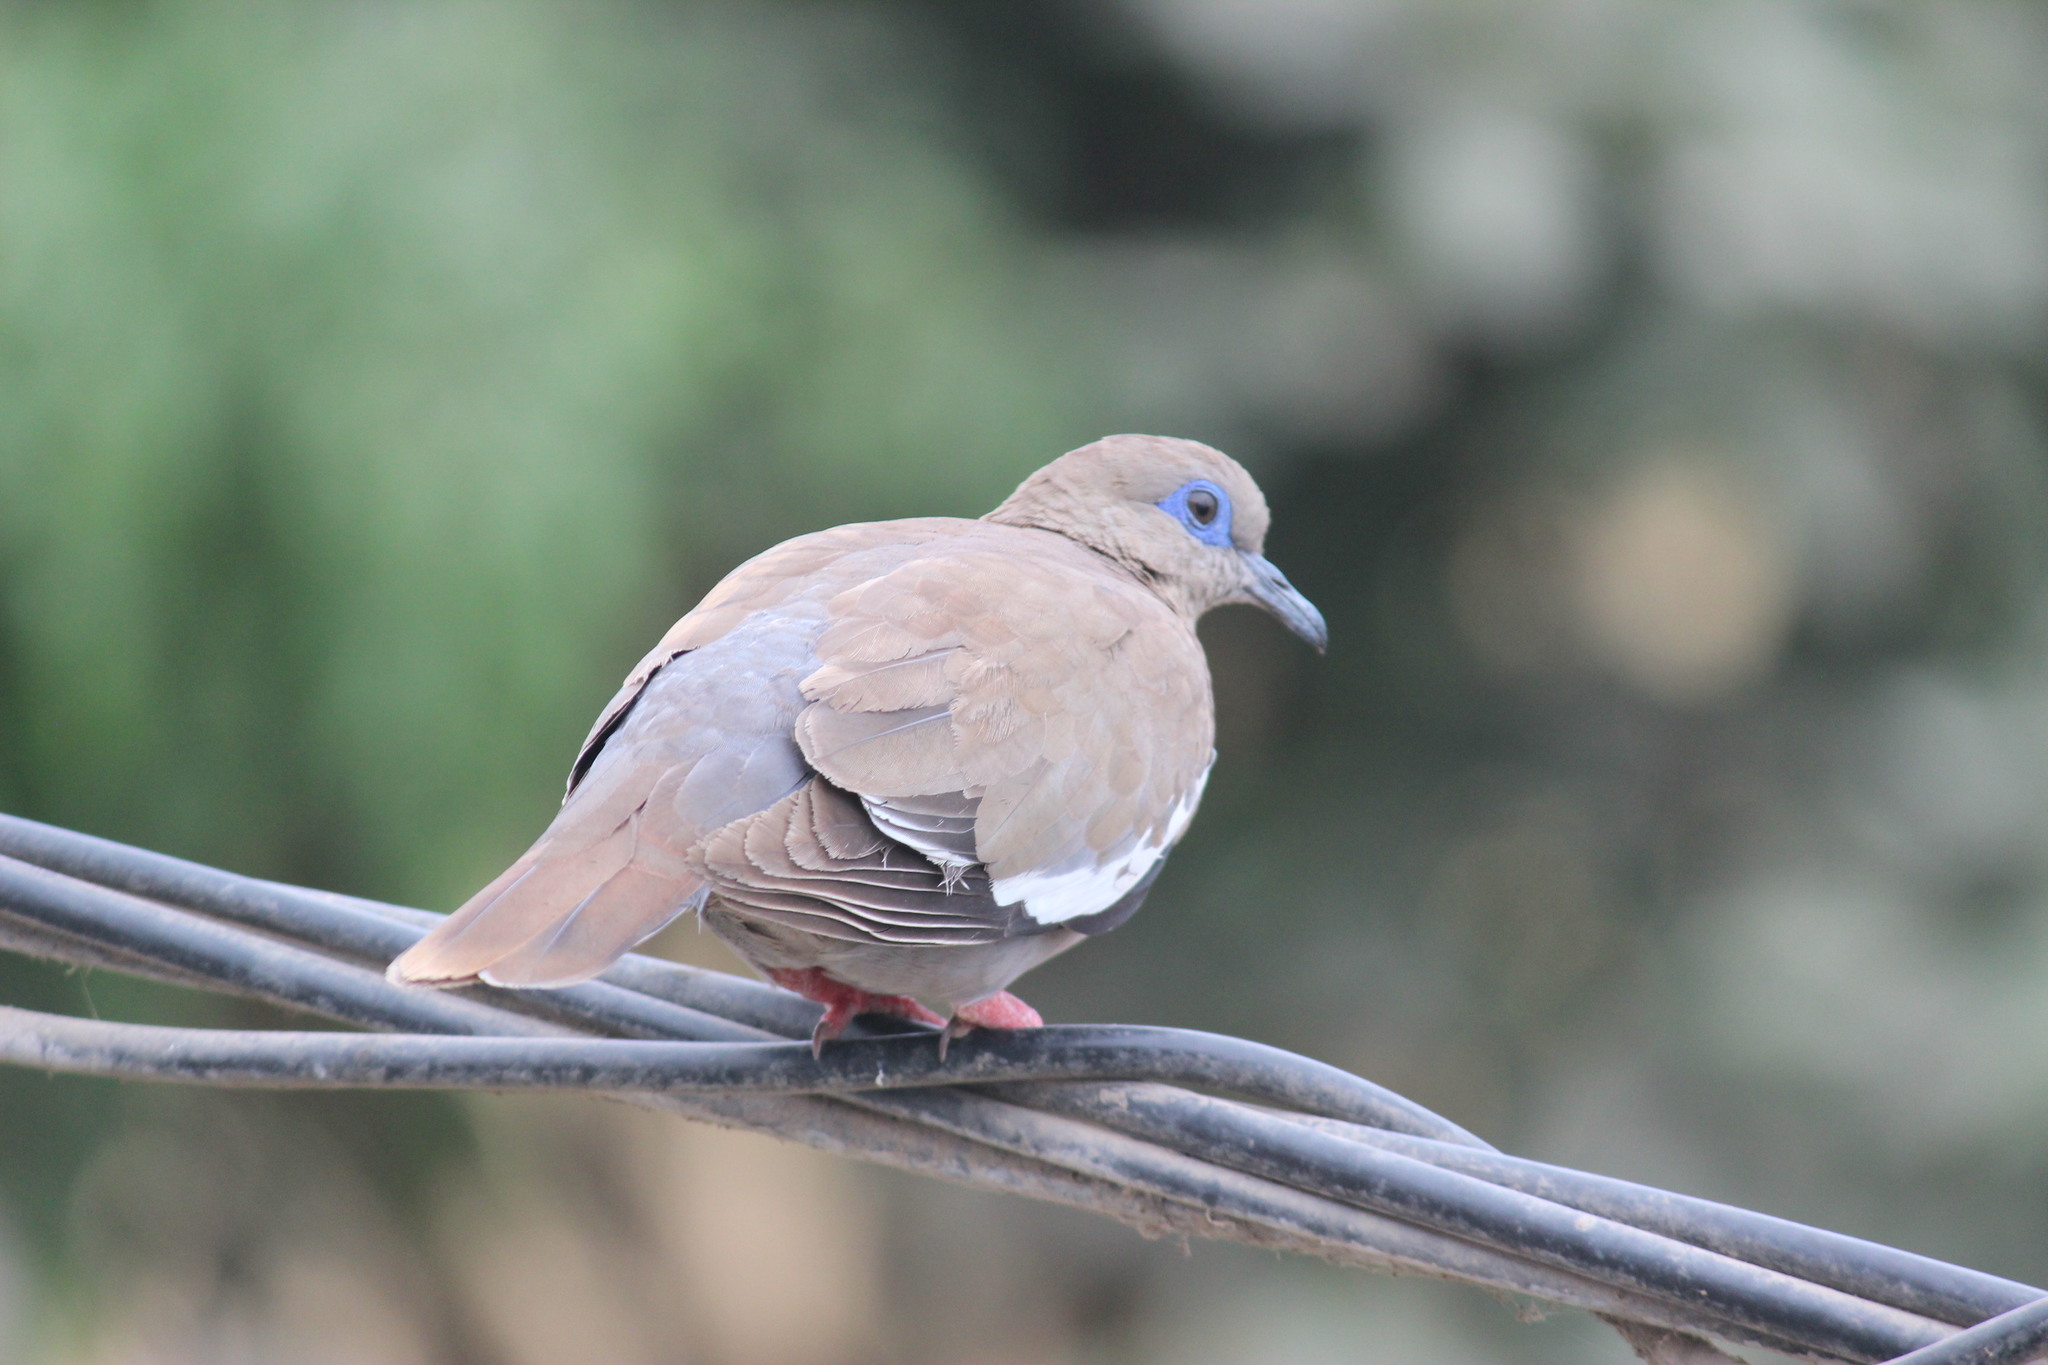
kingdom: Animalia
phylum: Chordata
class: Aves
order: Columbiformes
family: Columbidae
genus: Zenaida
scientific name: Zenaida meloda
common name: West peruvian dove
